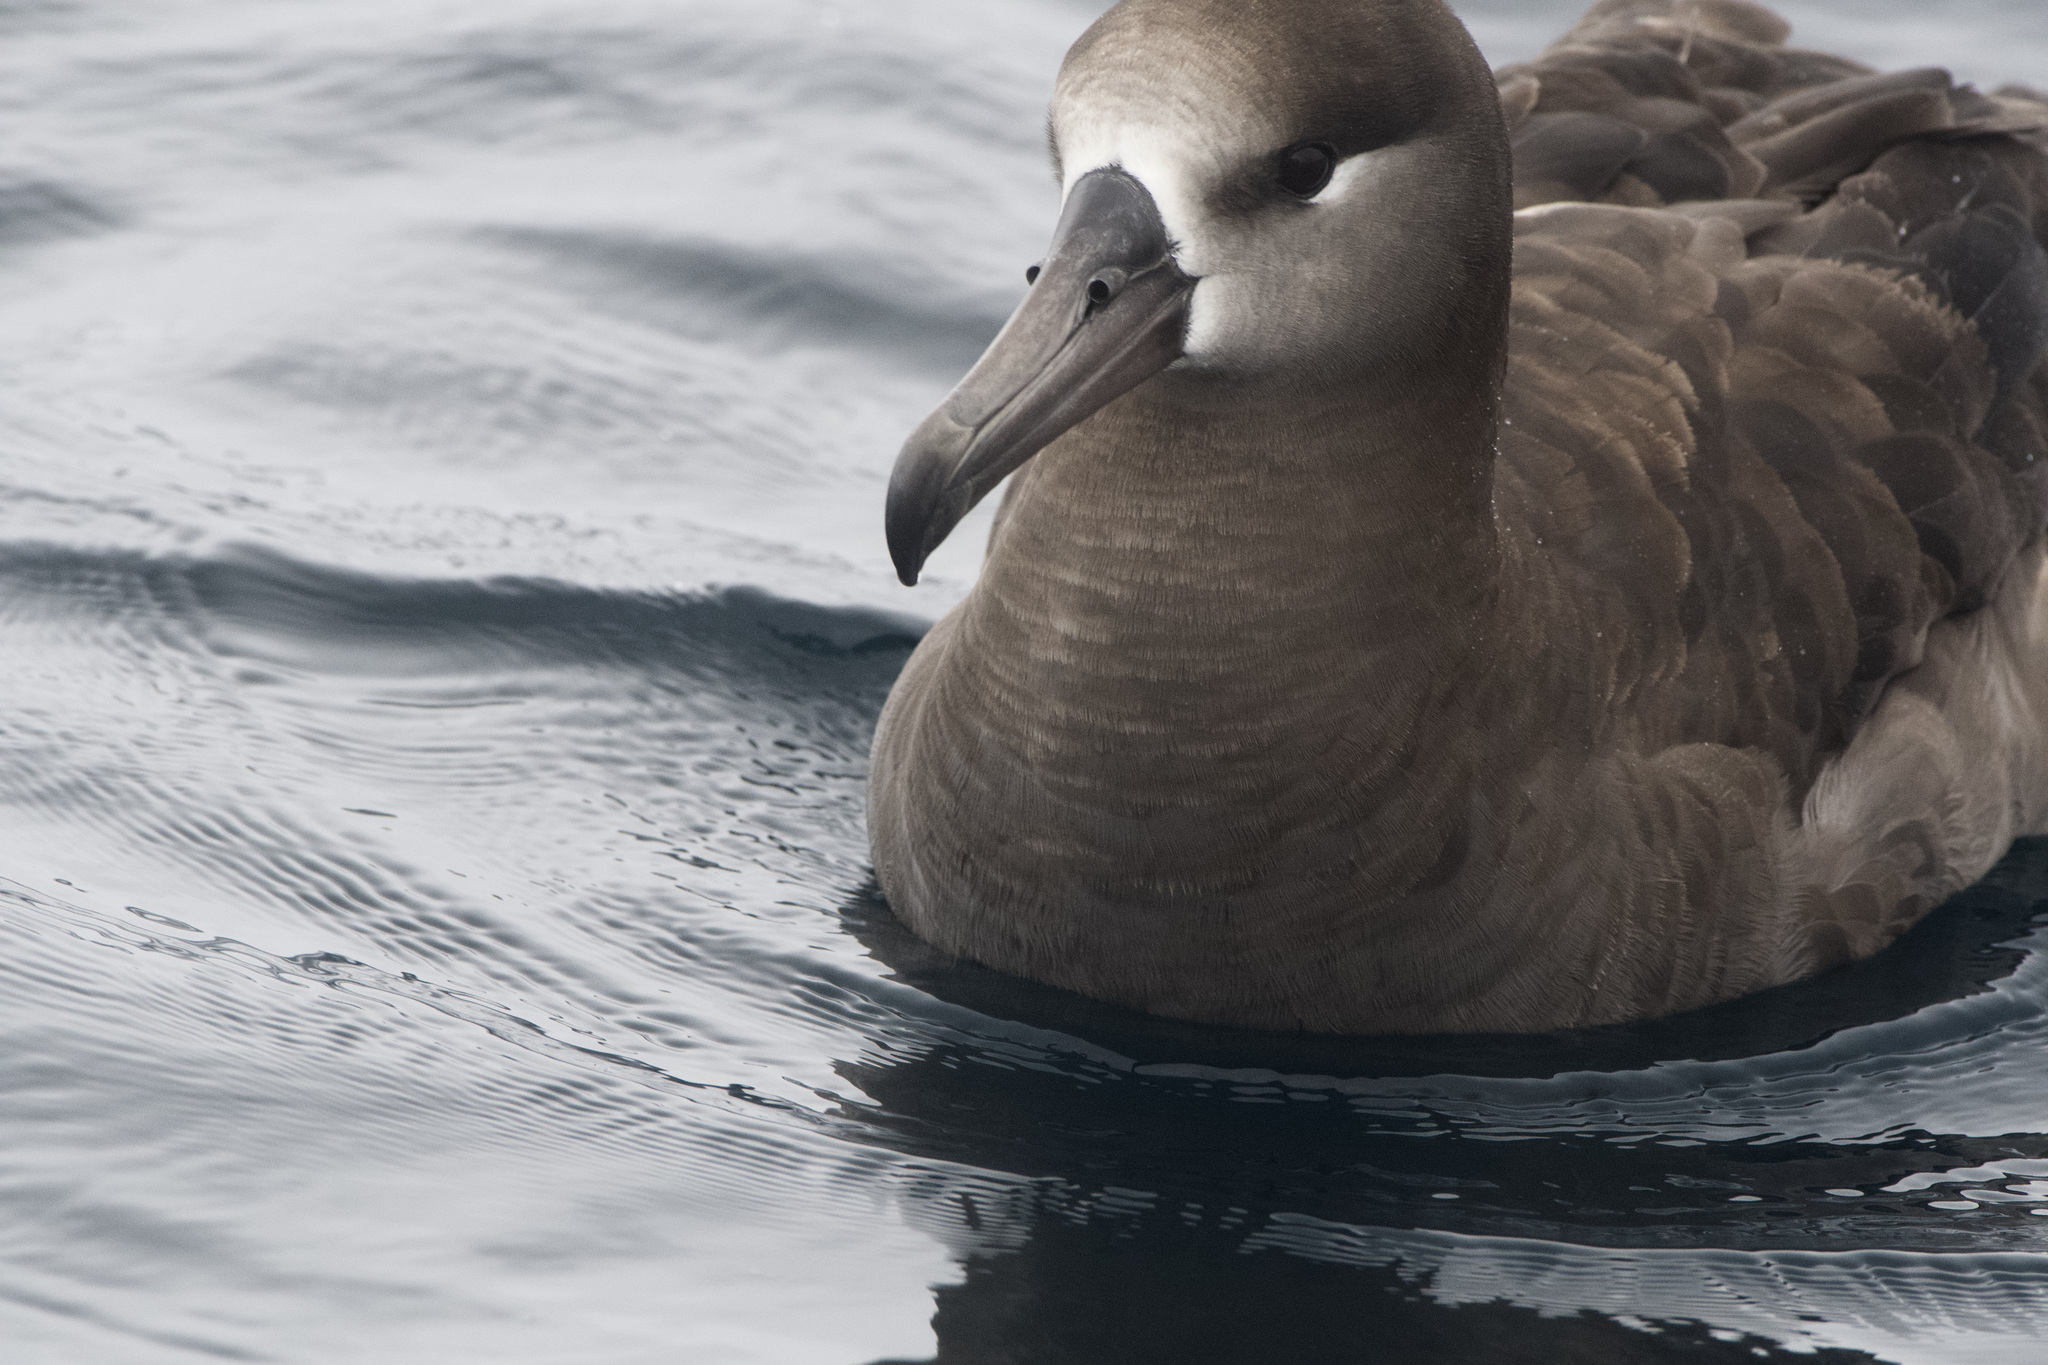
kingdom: Animalia
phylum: Chordata
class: Aves
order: Procellariiformes
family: Diomedeidae
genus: Phoebastria
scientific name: Phoebastria nigripes
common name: Black-footed albatross
